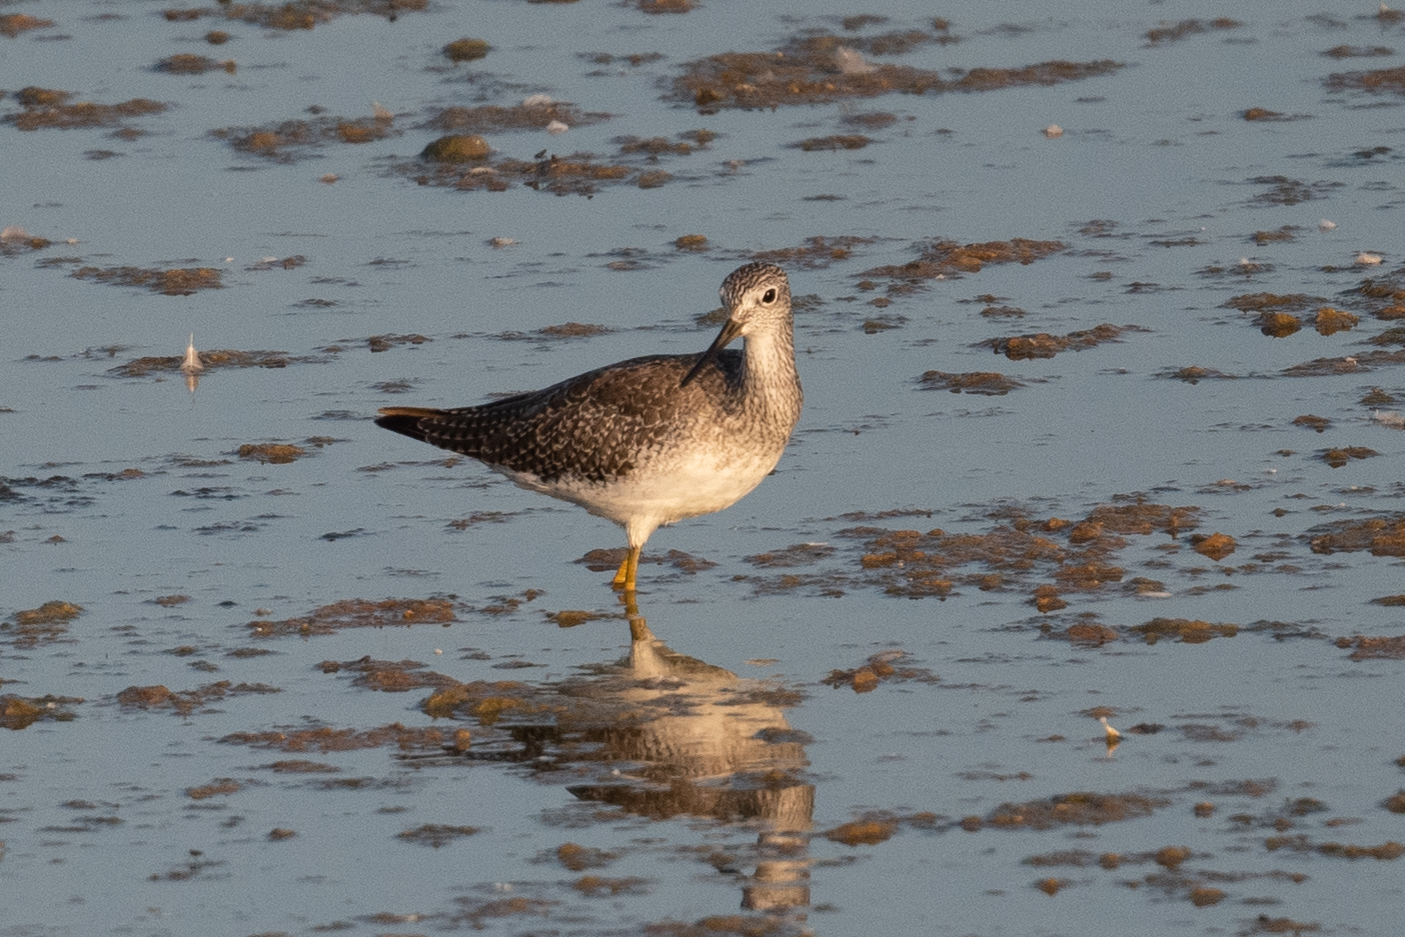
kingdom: Animalia
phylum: Chordata
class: Aves
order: Charadriiformes
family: Scolopacidae
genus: Tringa
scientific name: Tringa melanoleuca
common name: Greater yellowlegs
